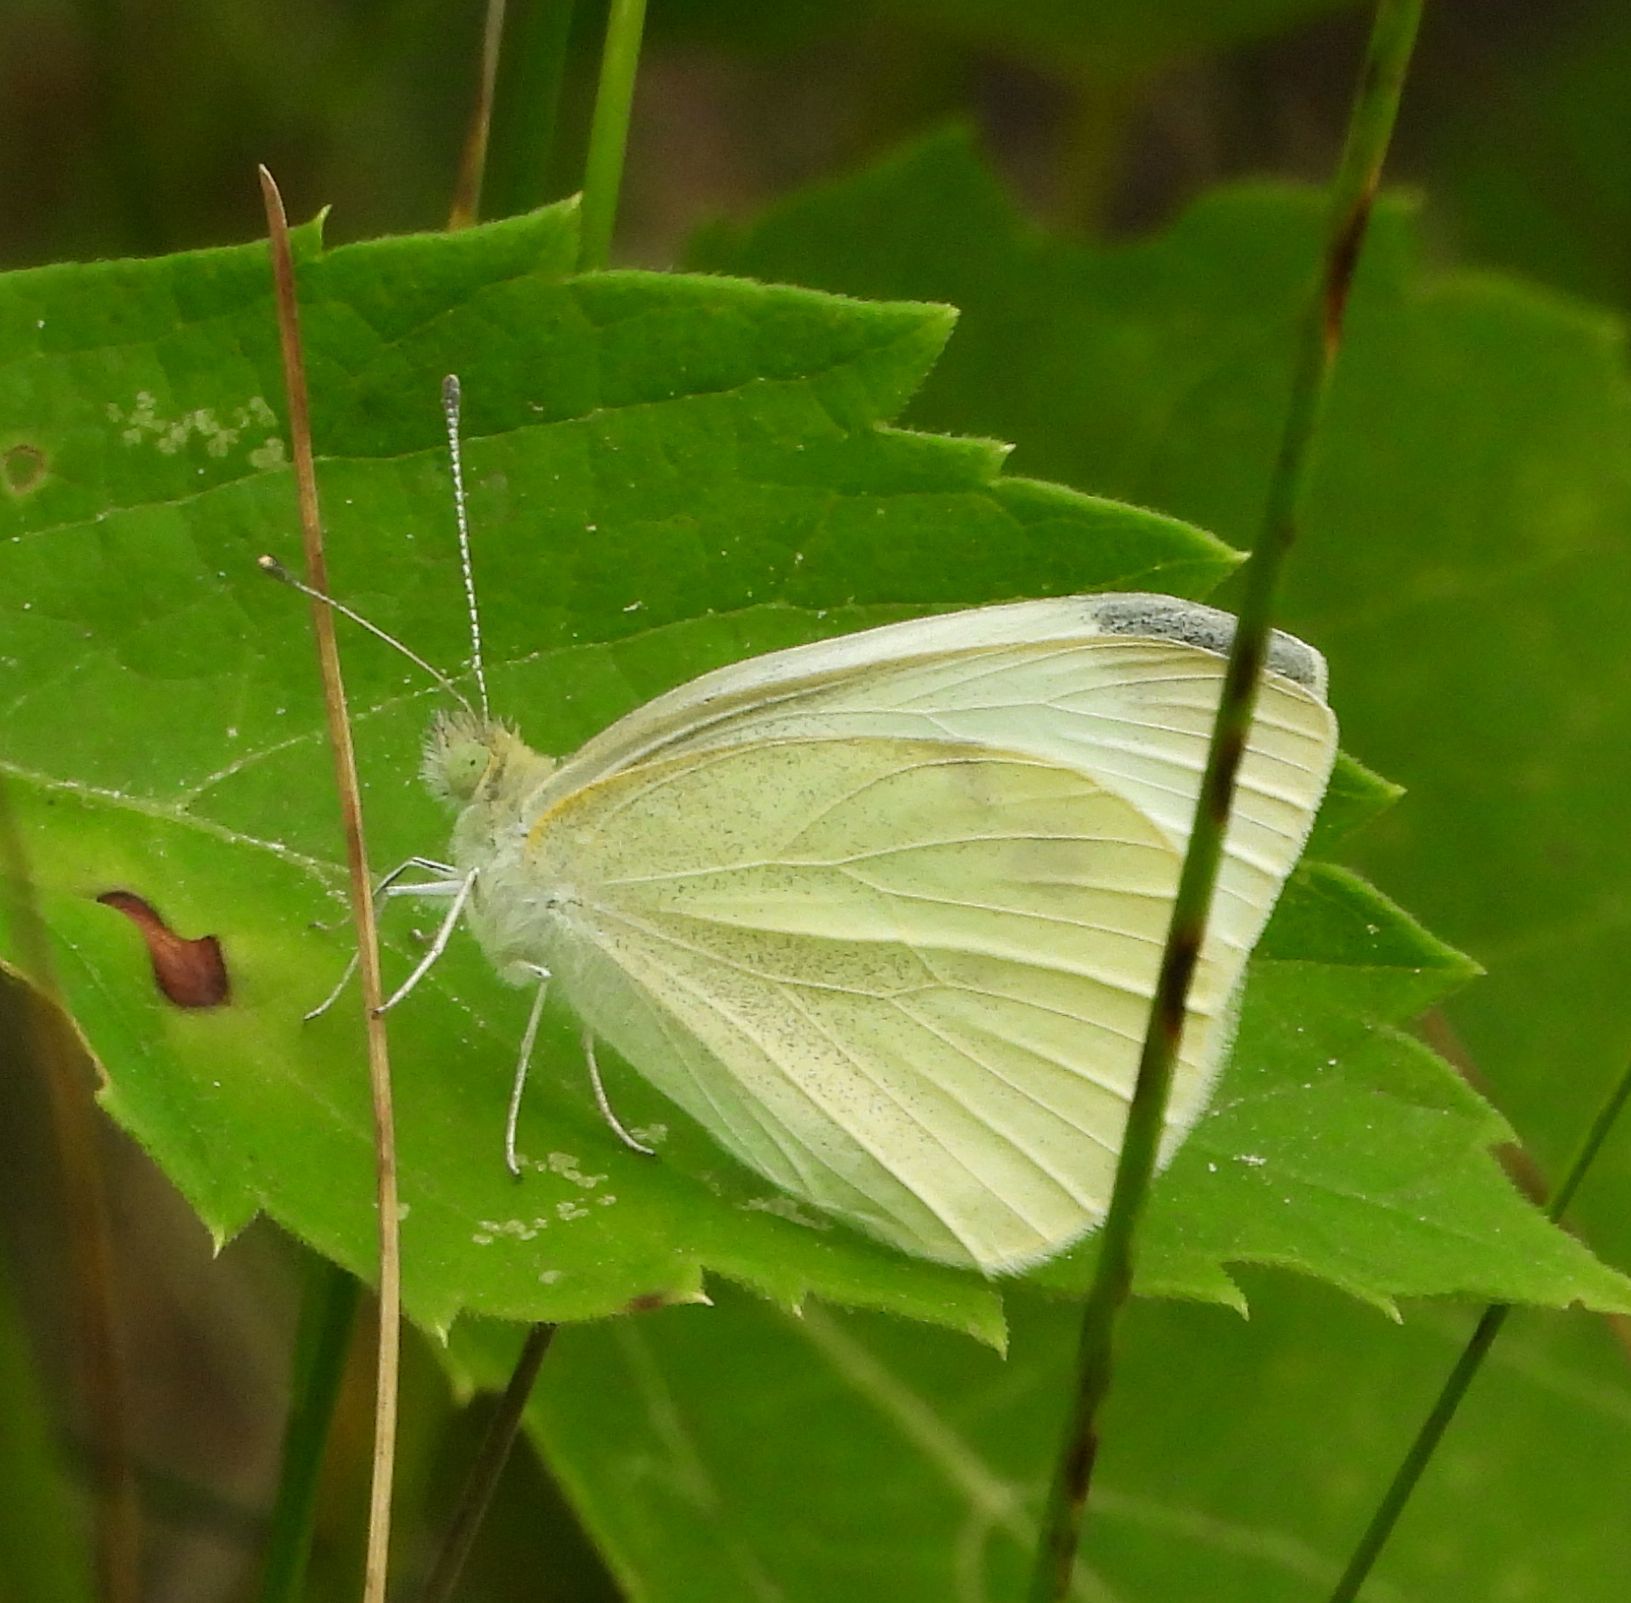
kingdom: Animalia
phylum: Arthropoda
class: Insecta
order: Lepidoptera
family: Pieridae
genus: Pieris
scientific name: Pieris rapae
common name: Small white
